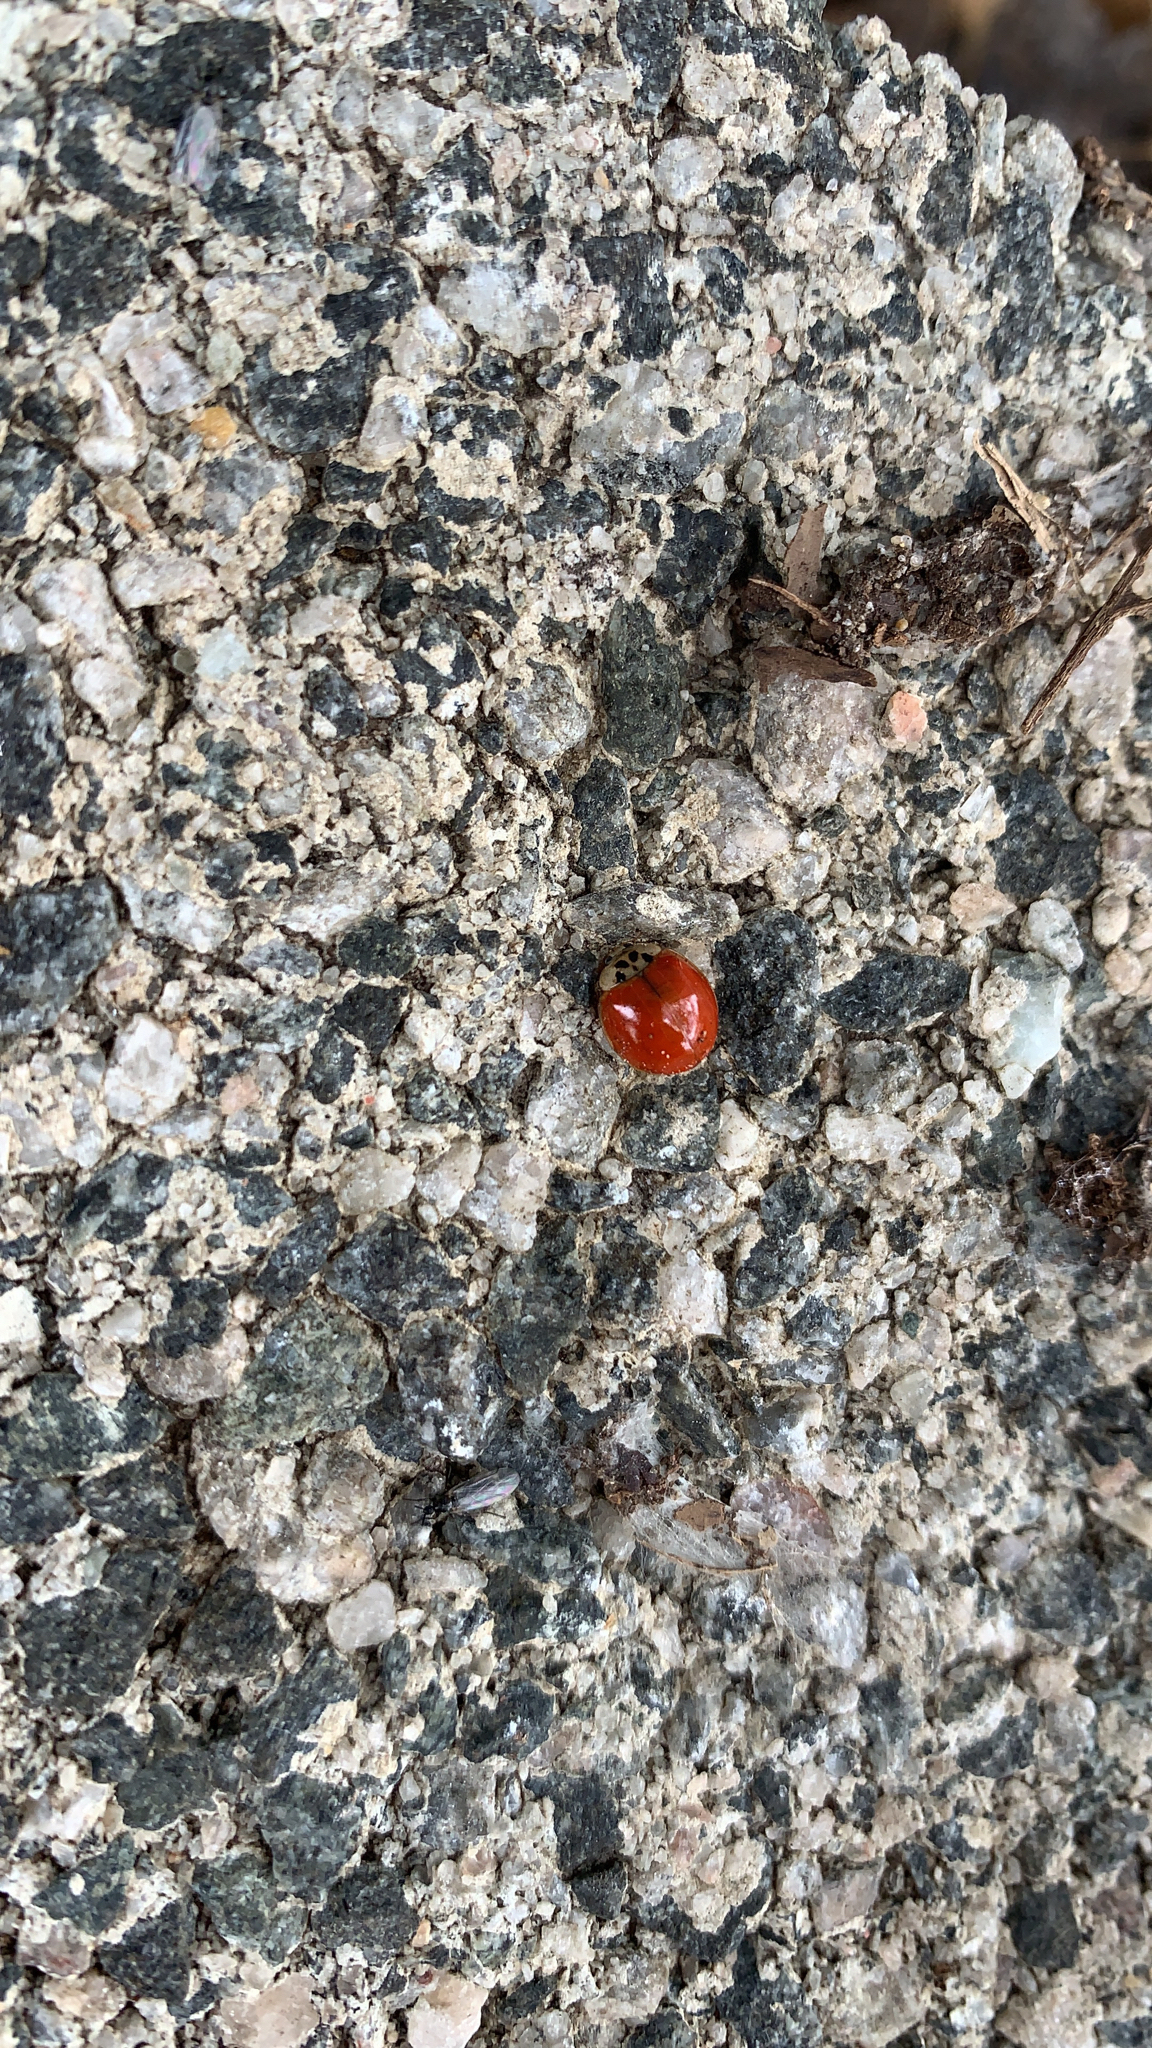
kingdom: Animalia
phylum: Arthropoda
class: Insecta
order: Coleoptera
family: Coccinellidae
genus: Harmonia
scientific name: Harmonia axyridis
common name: Harlequin ladybird
